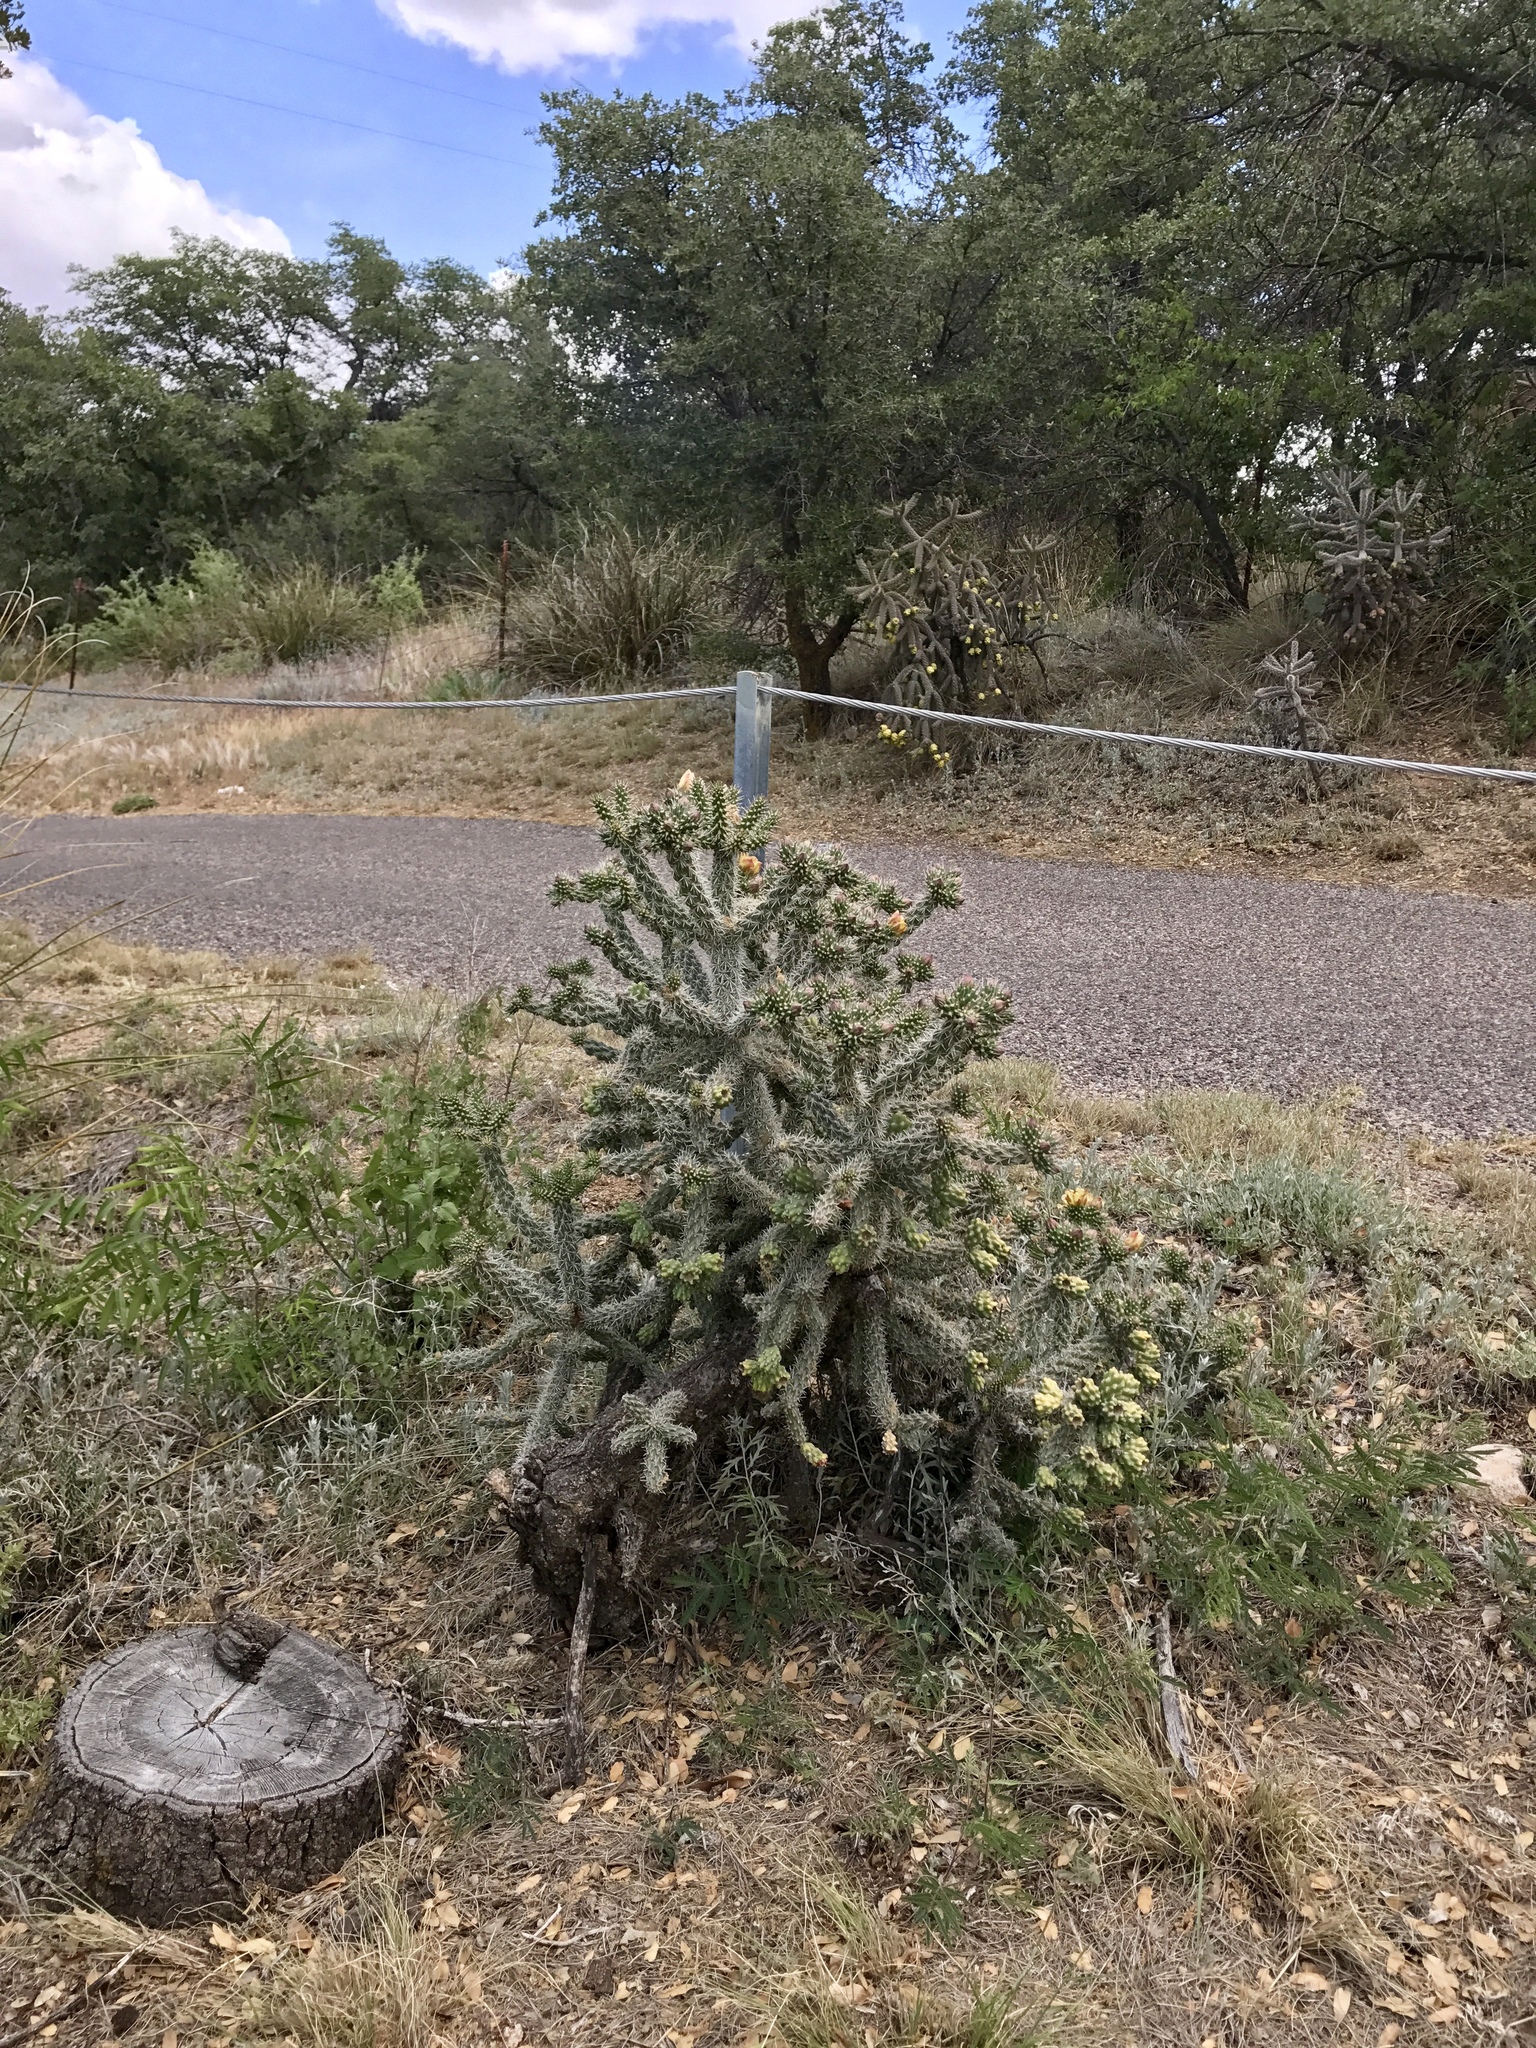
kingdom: Plantae
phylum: Tracheophyta
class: Magnoliopsida
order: Caryophyllales
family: Cactaceae
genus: Cylindropuntia
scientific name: Cylindropuntia imbricata
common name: Candelabrum cactus
